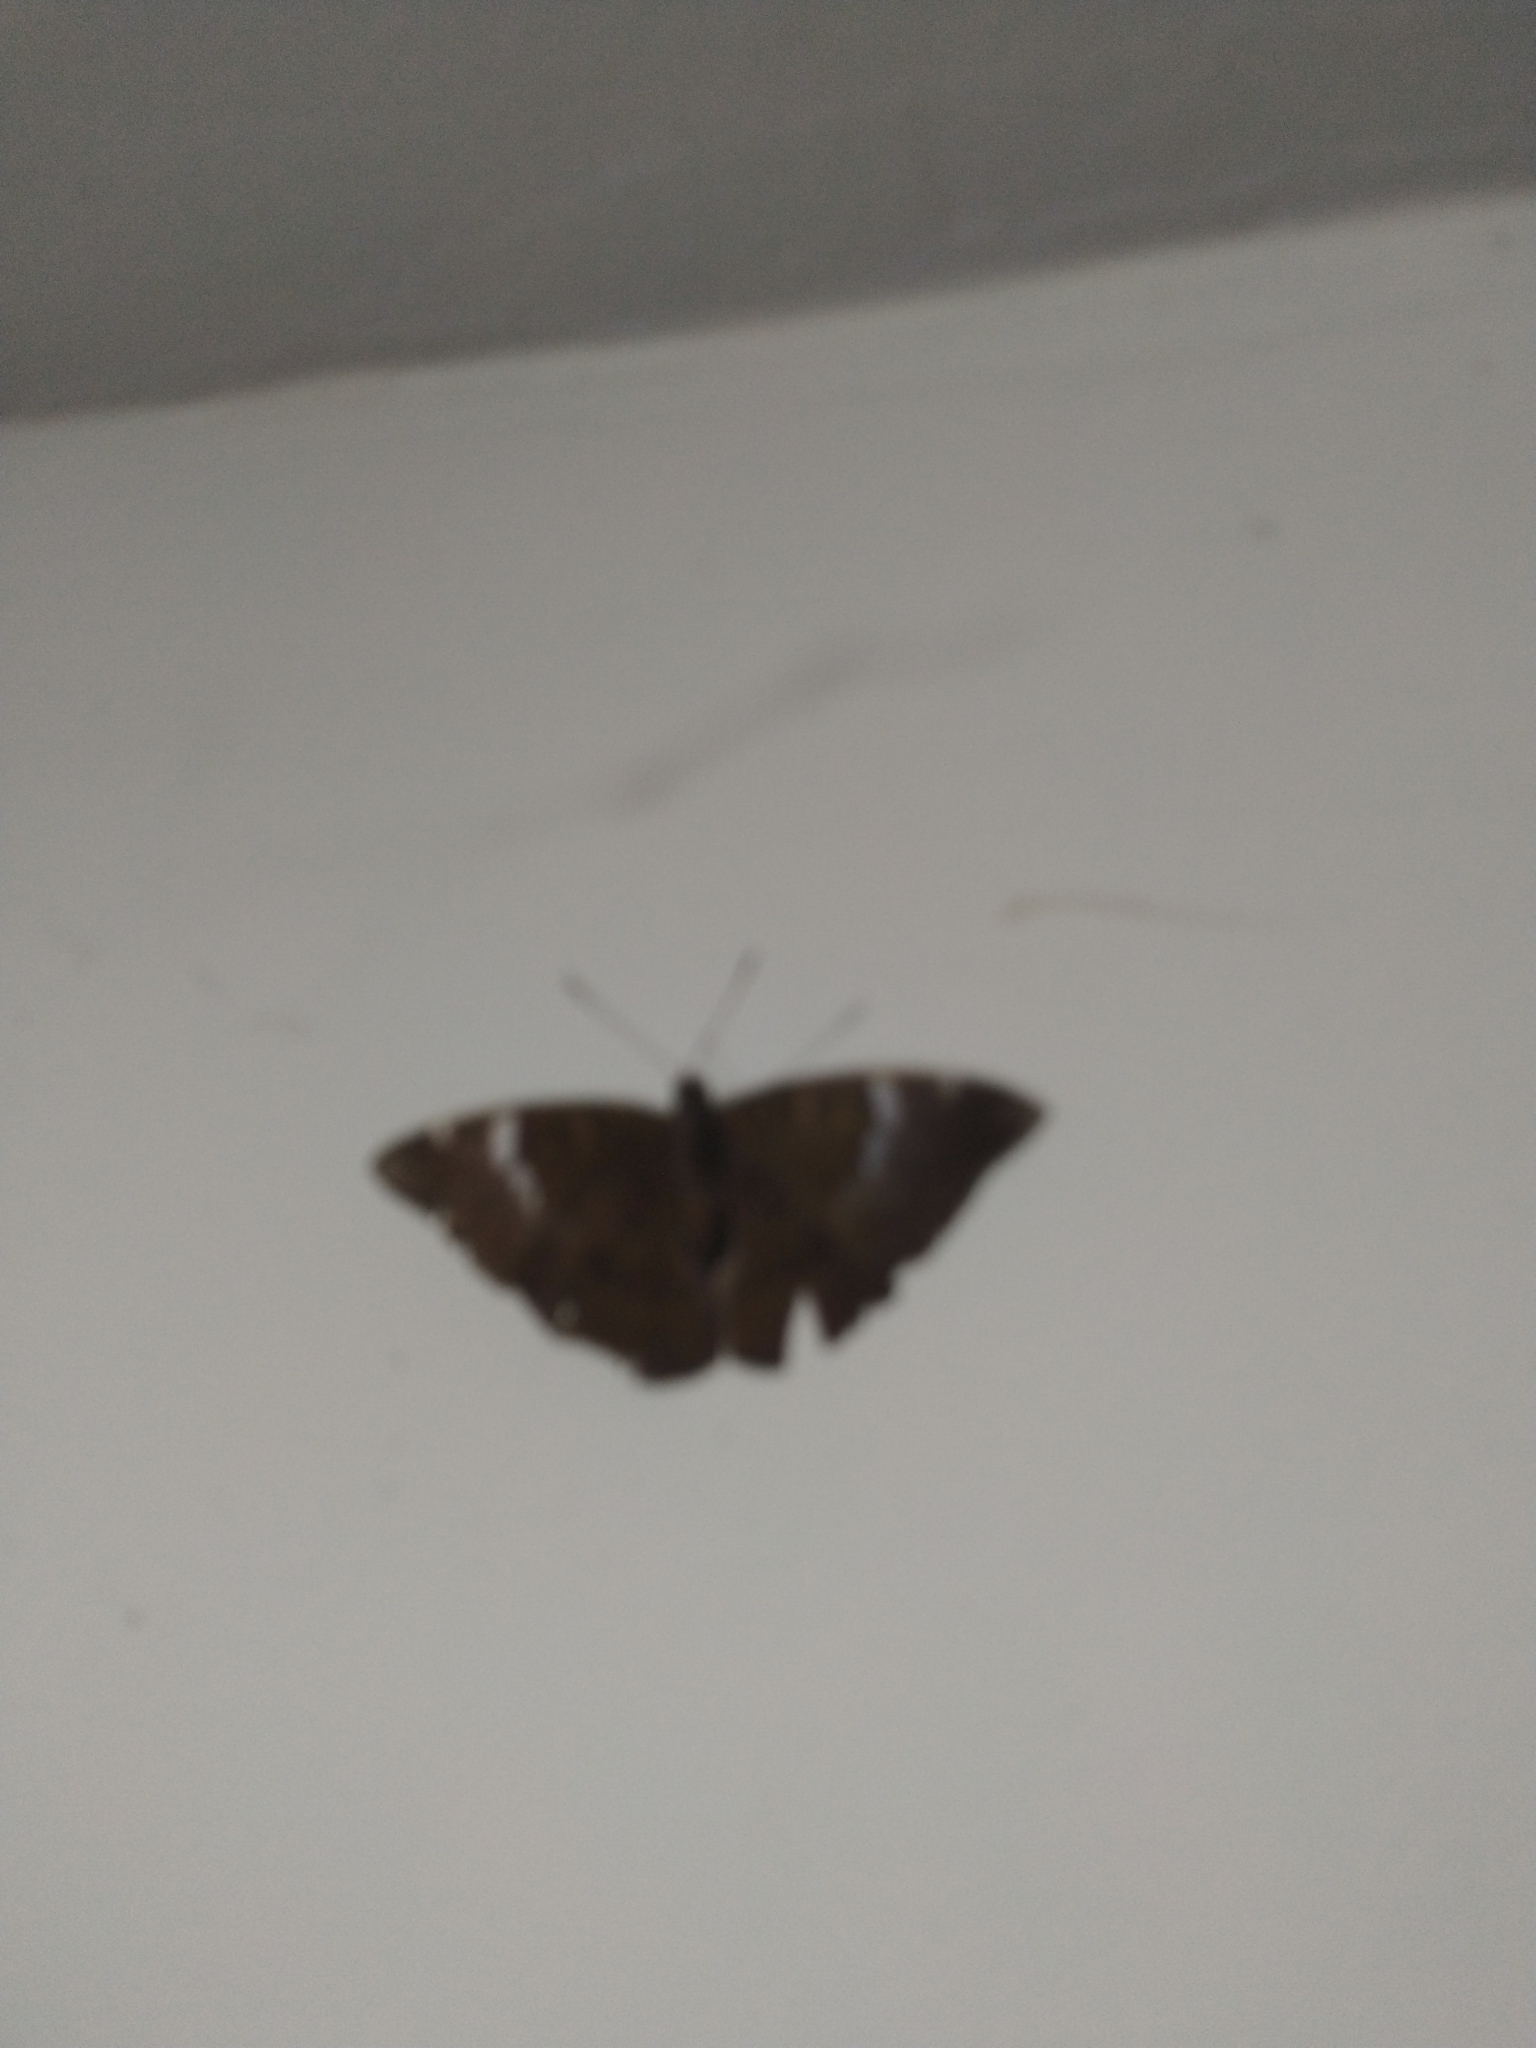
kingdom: Animalia
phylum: Arthropoda
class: Insecta
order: Lepidoptera
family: Nymphalidae
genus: Euthalia
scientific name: Euthalia aconthea
